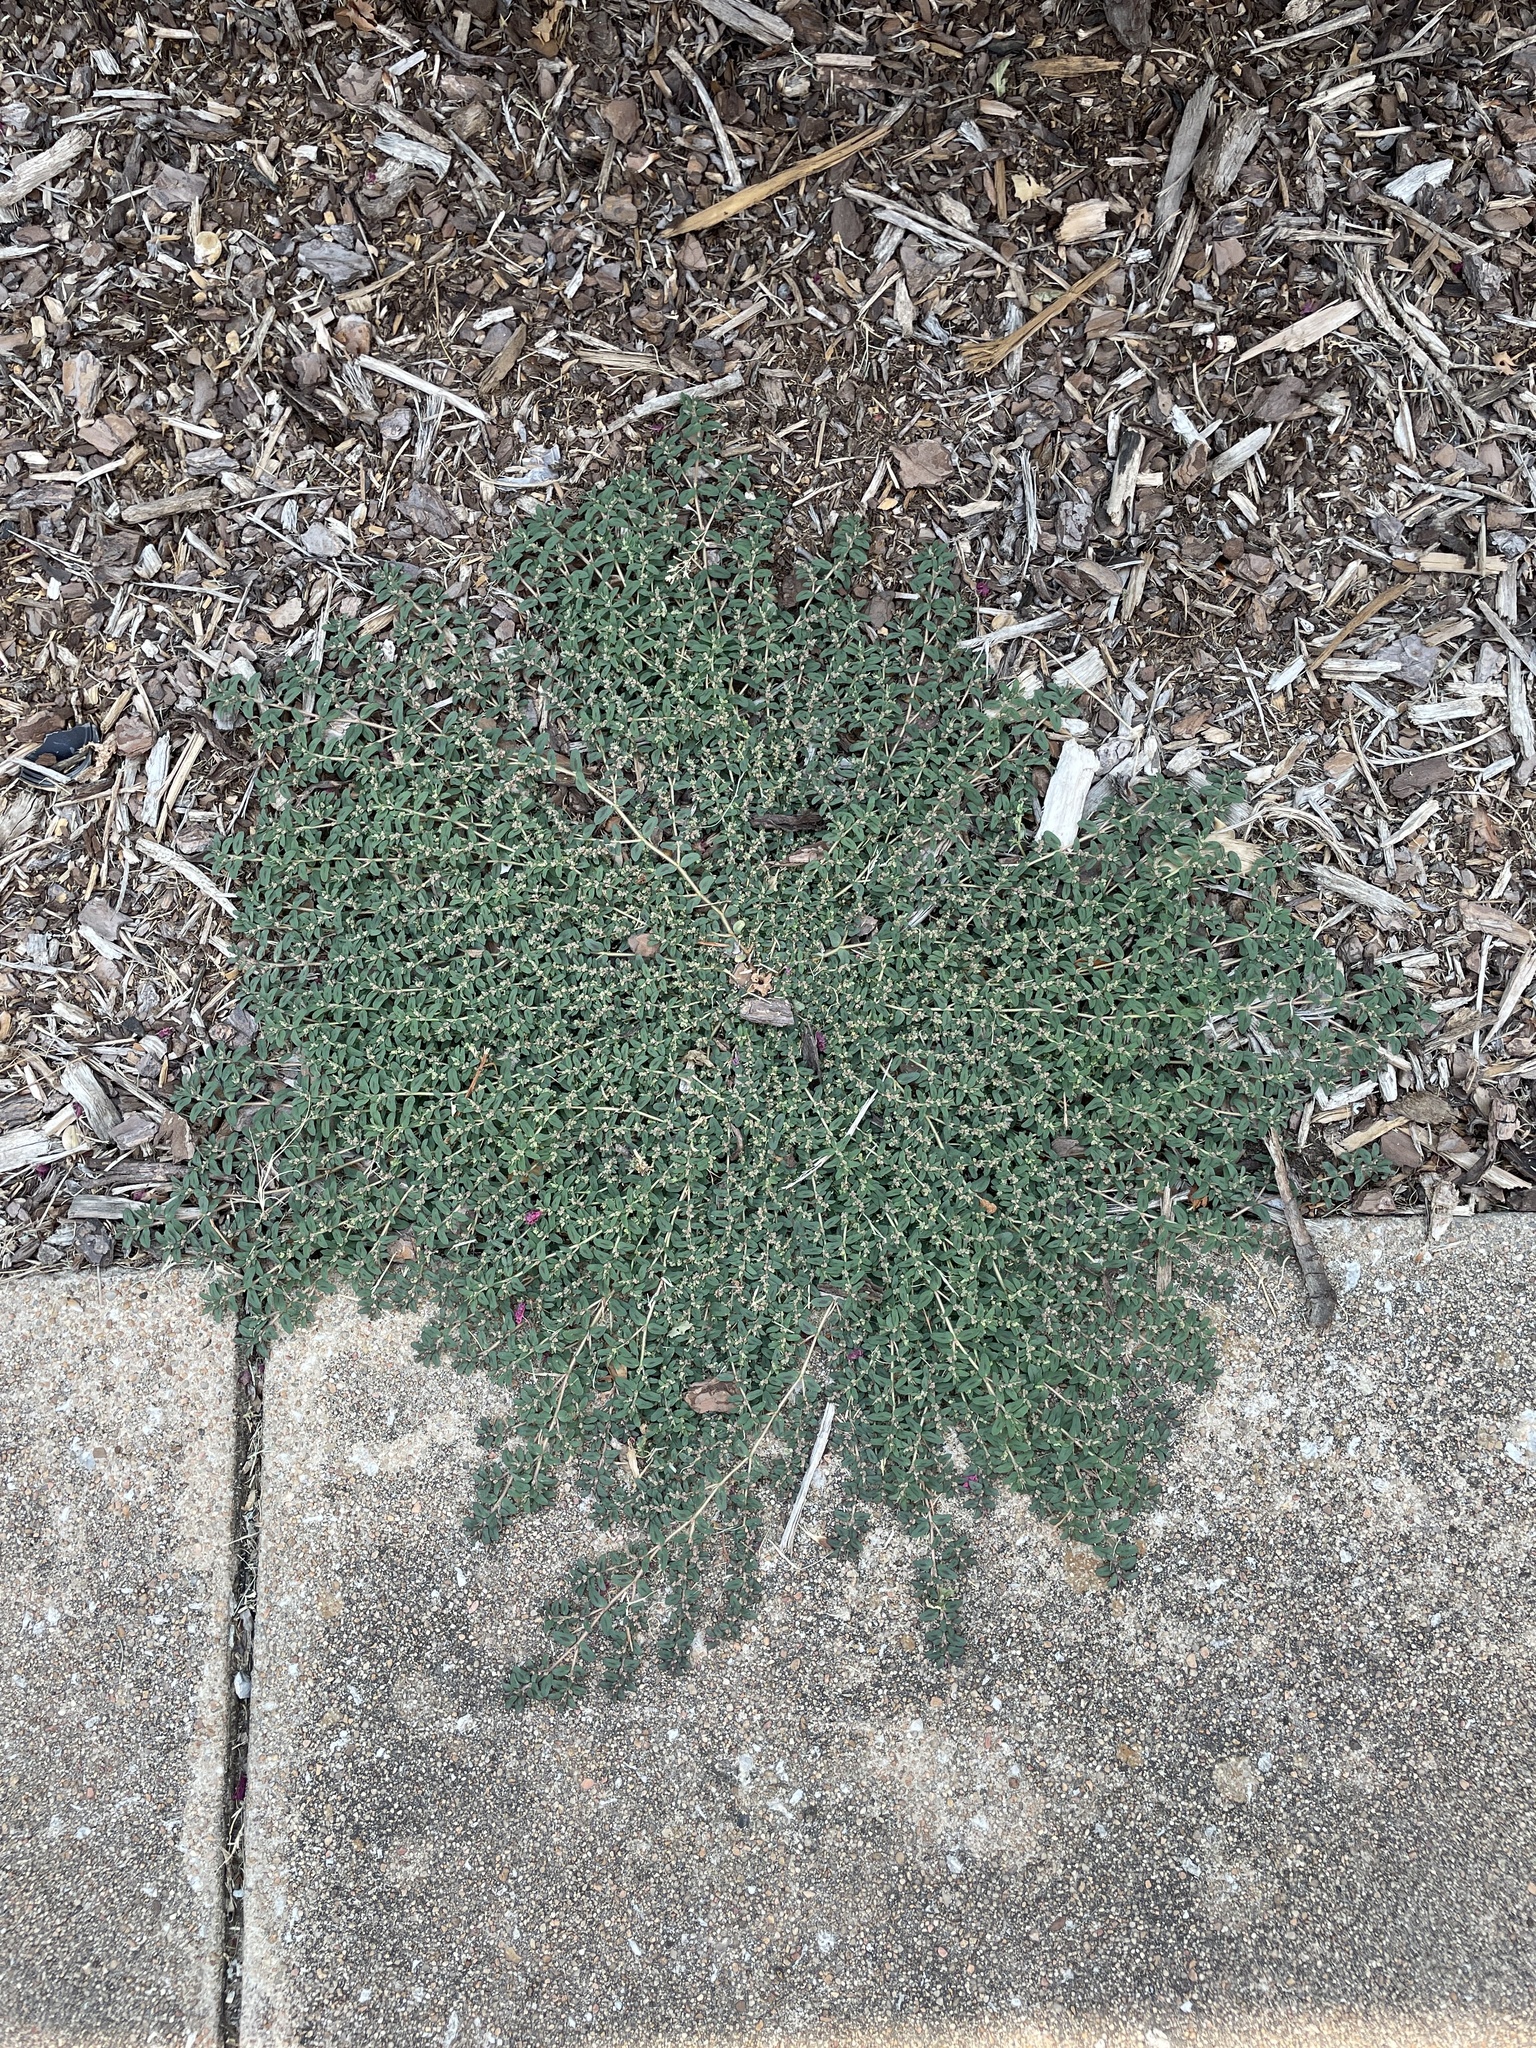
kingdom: Plantae
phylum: Tracheophyta
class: Magnoliopsida
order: Malpighiales
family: Euphorbiaceae
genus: Euphorbia
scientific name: Euphorbia maculata
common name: Spotted spurge
